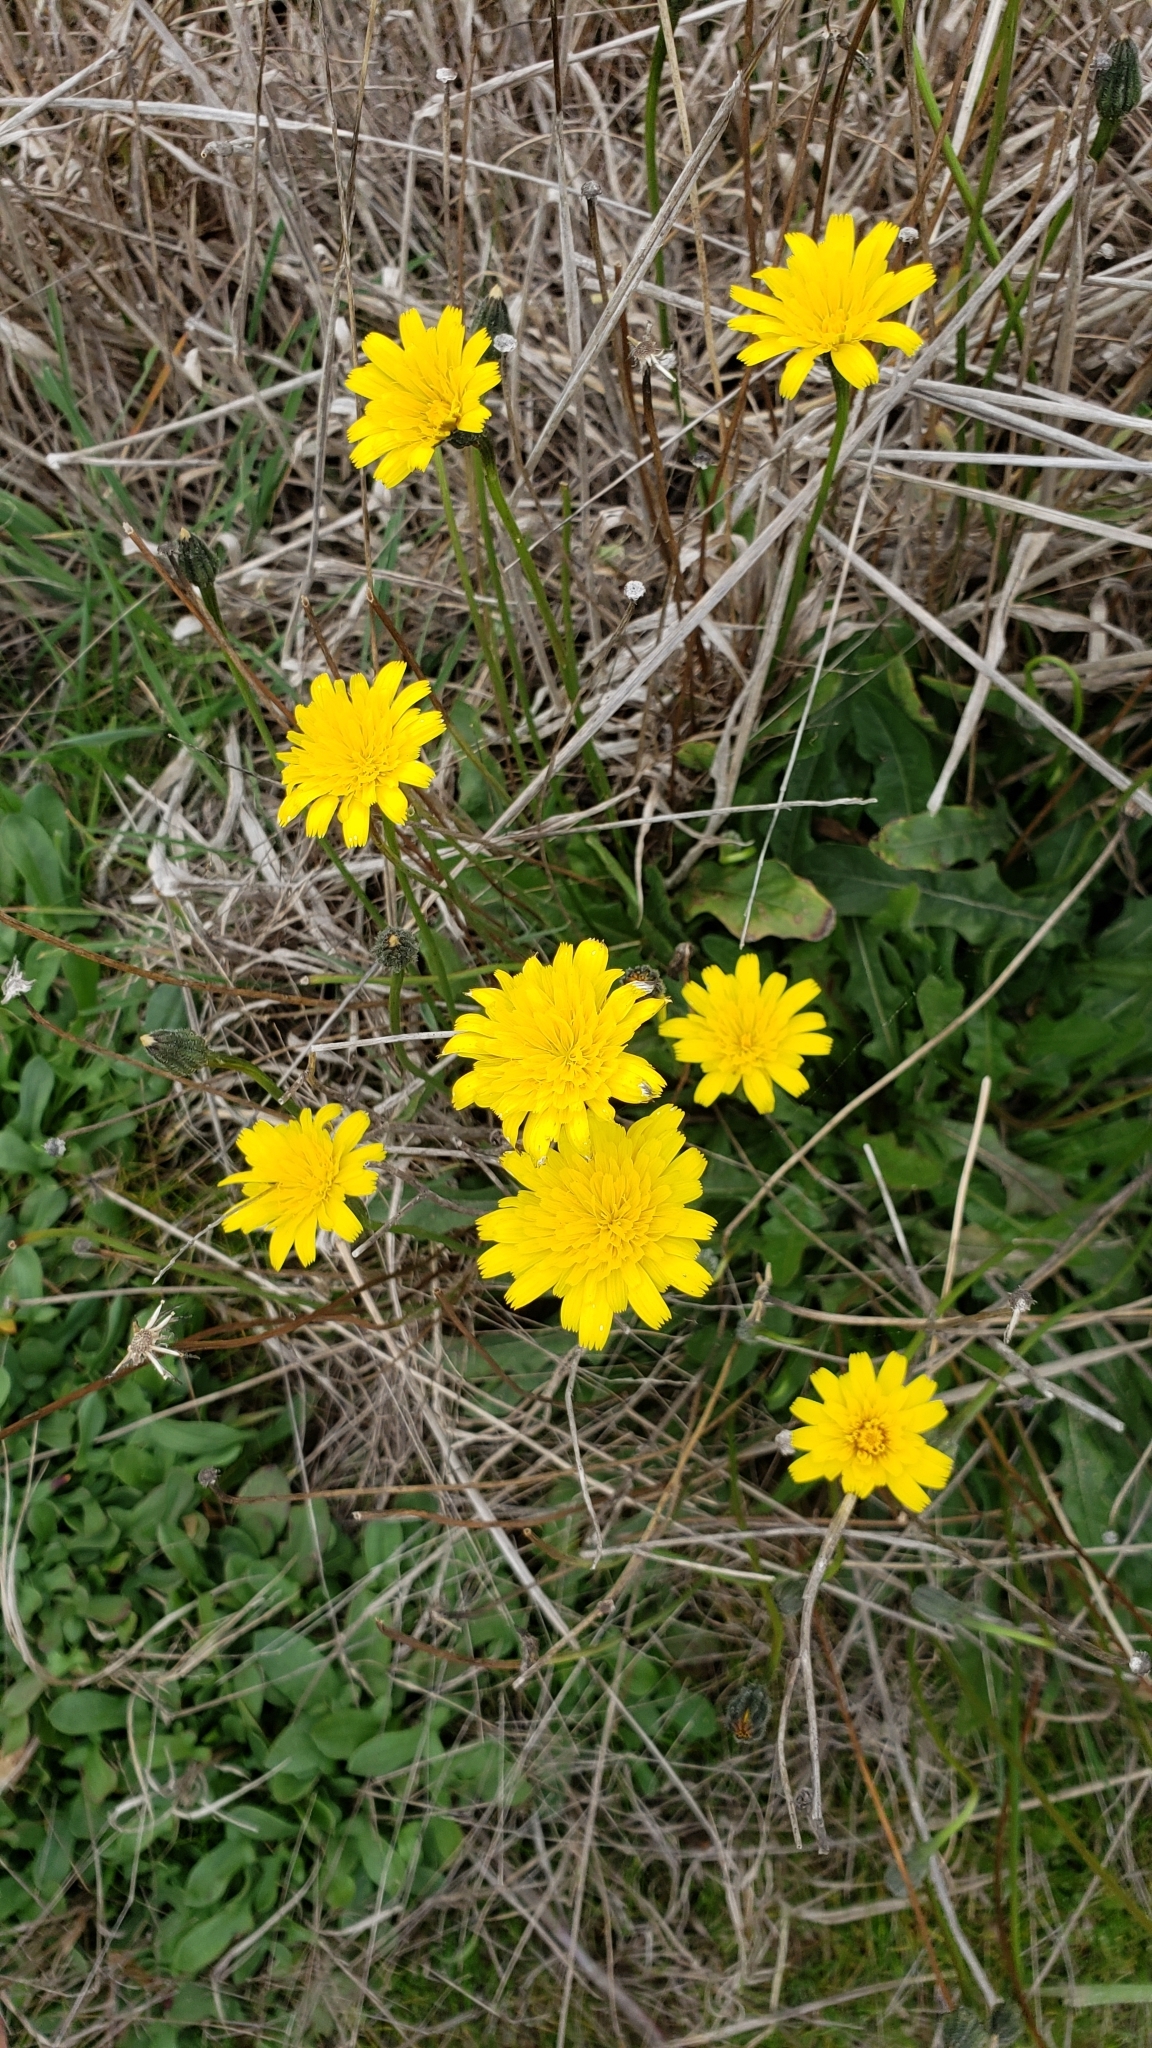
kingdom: Plantae
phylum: Tracheophyta
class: Magnoliopsida
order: Asterales
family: Asteraceae
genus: Hypochaeris
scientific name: Hypochaeris radicata
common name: Flatweed
